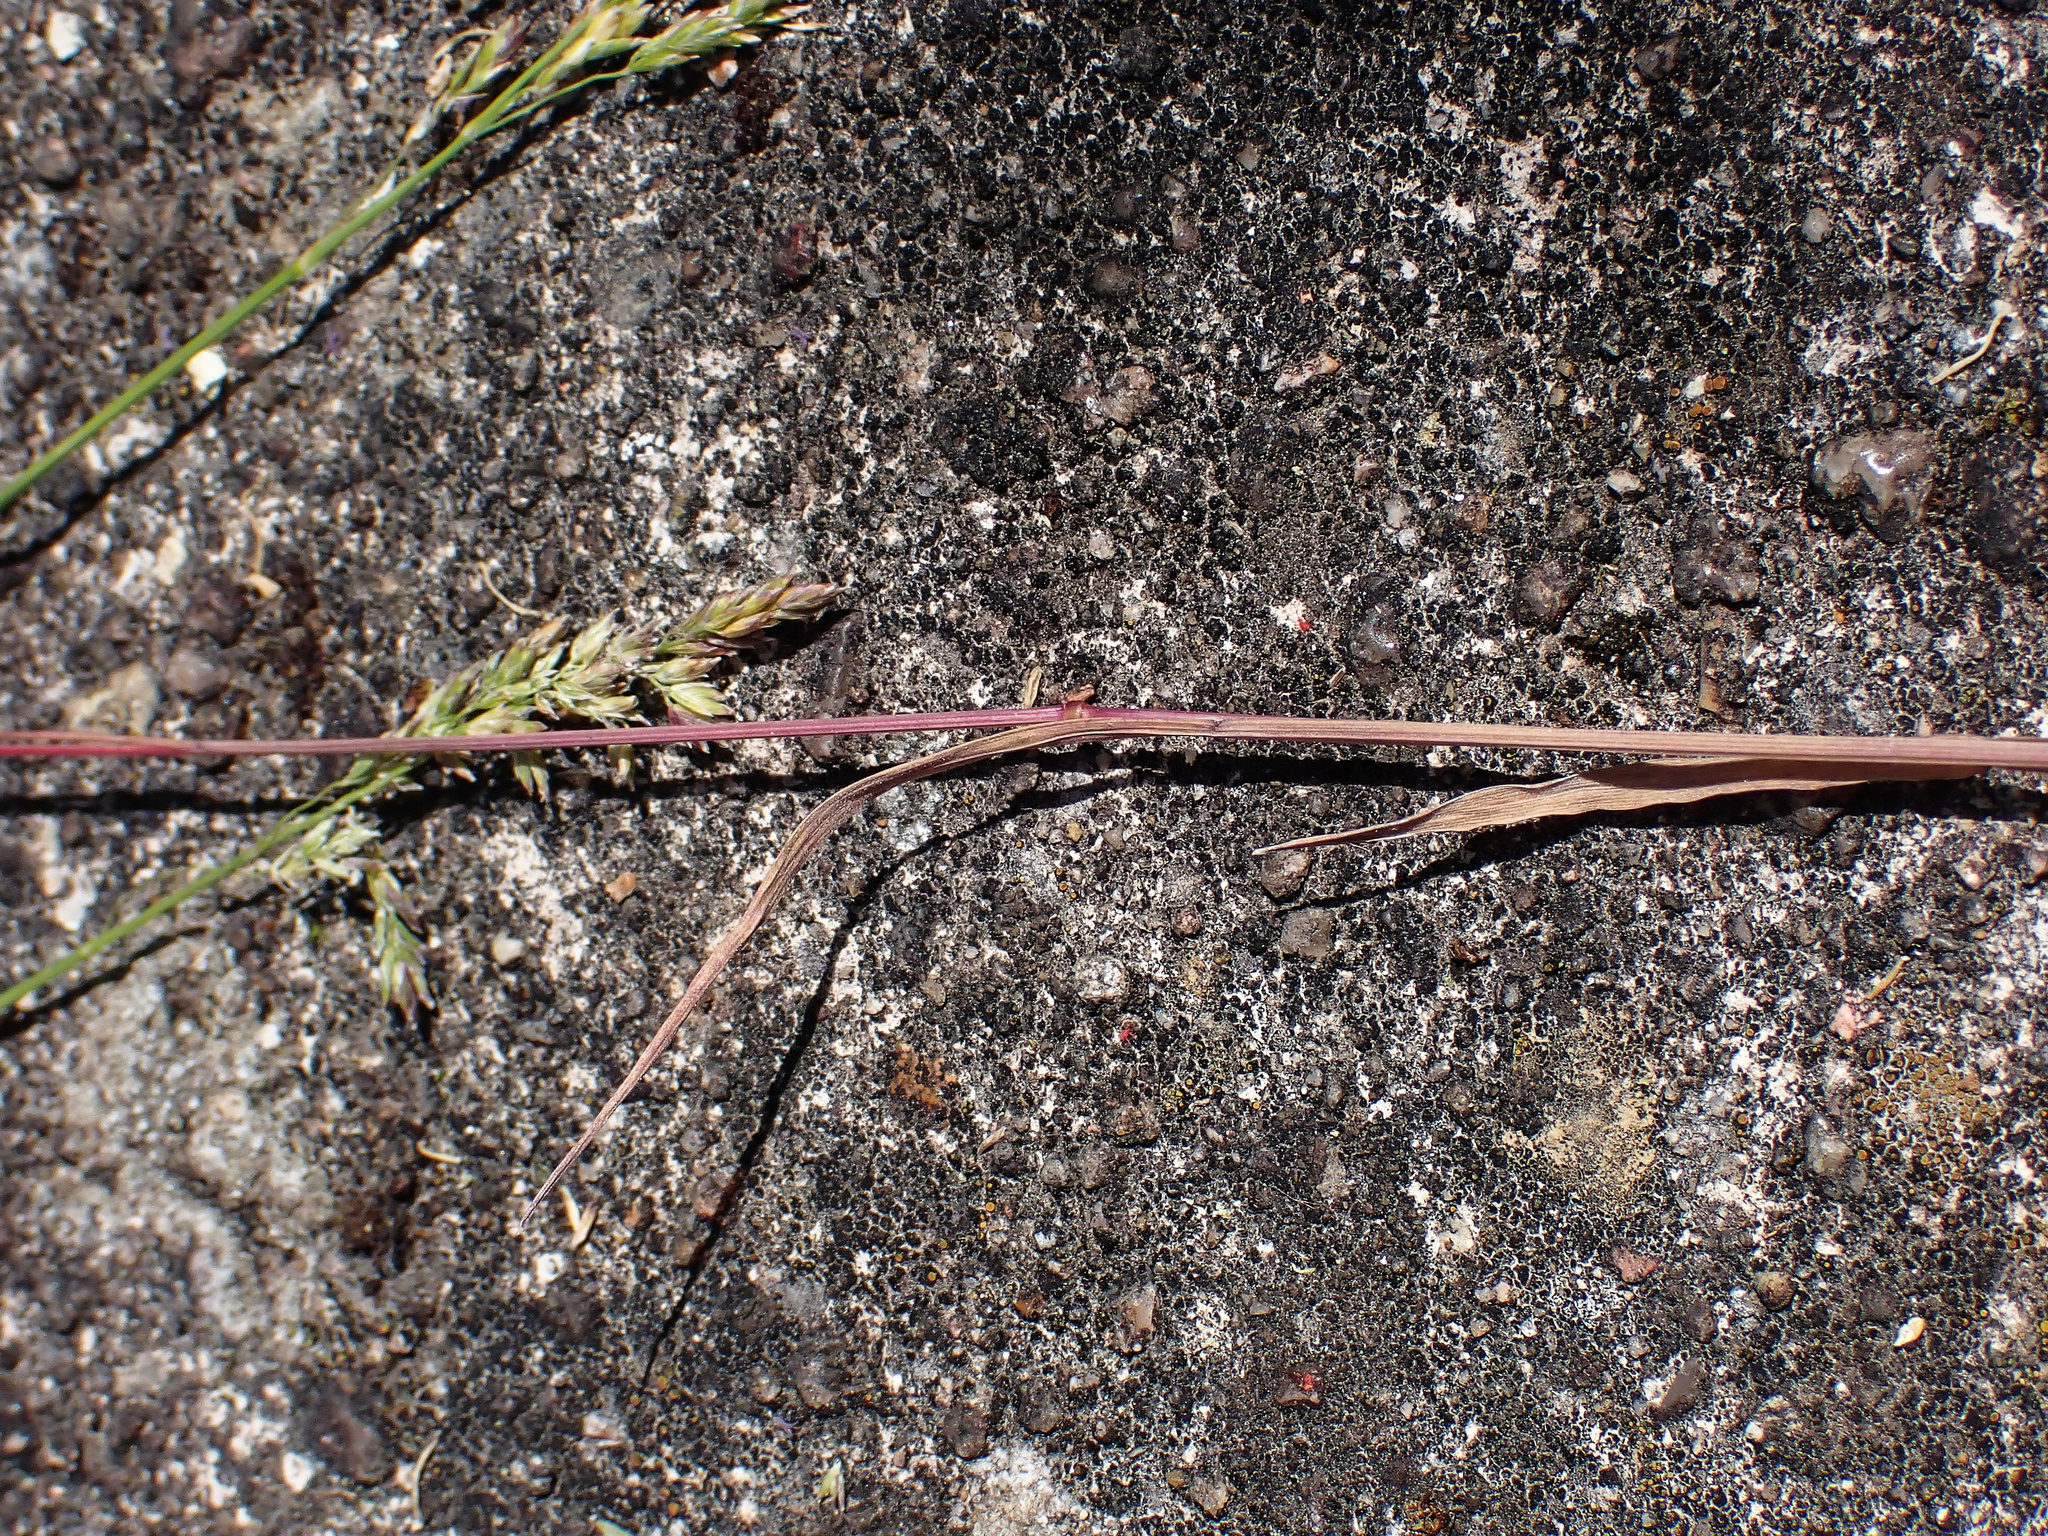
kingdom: Plantae
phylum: Tracheophyta
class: Liliopsida
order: Poales
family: Poaceae
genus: Bromus
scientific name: Bromus sterilis
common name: Poverty brome
